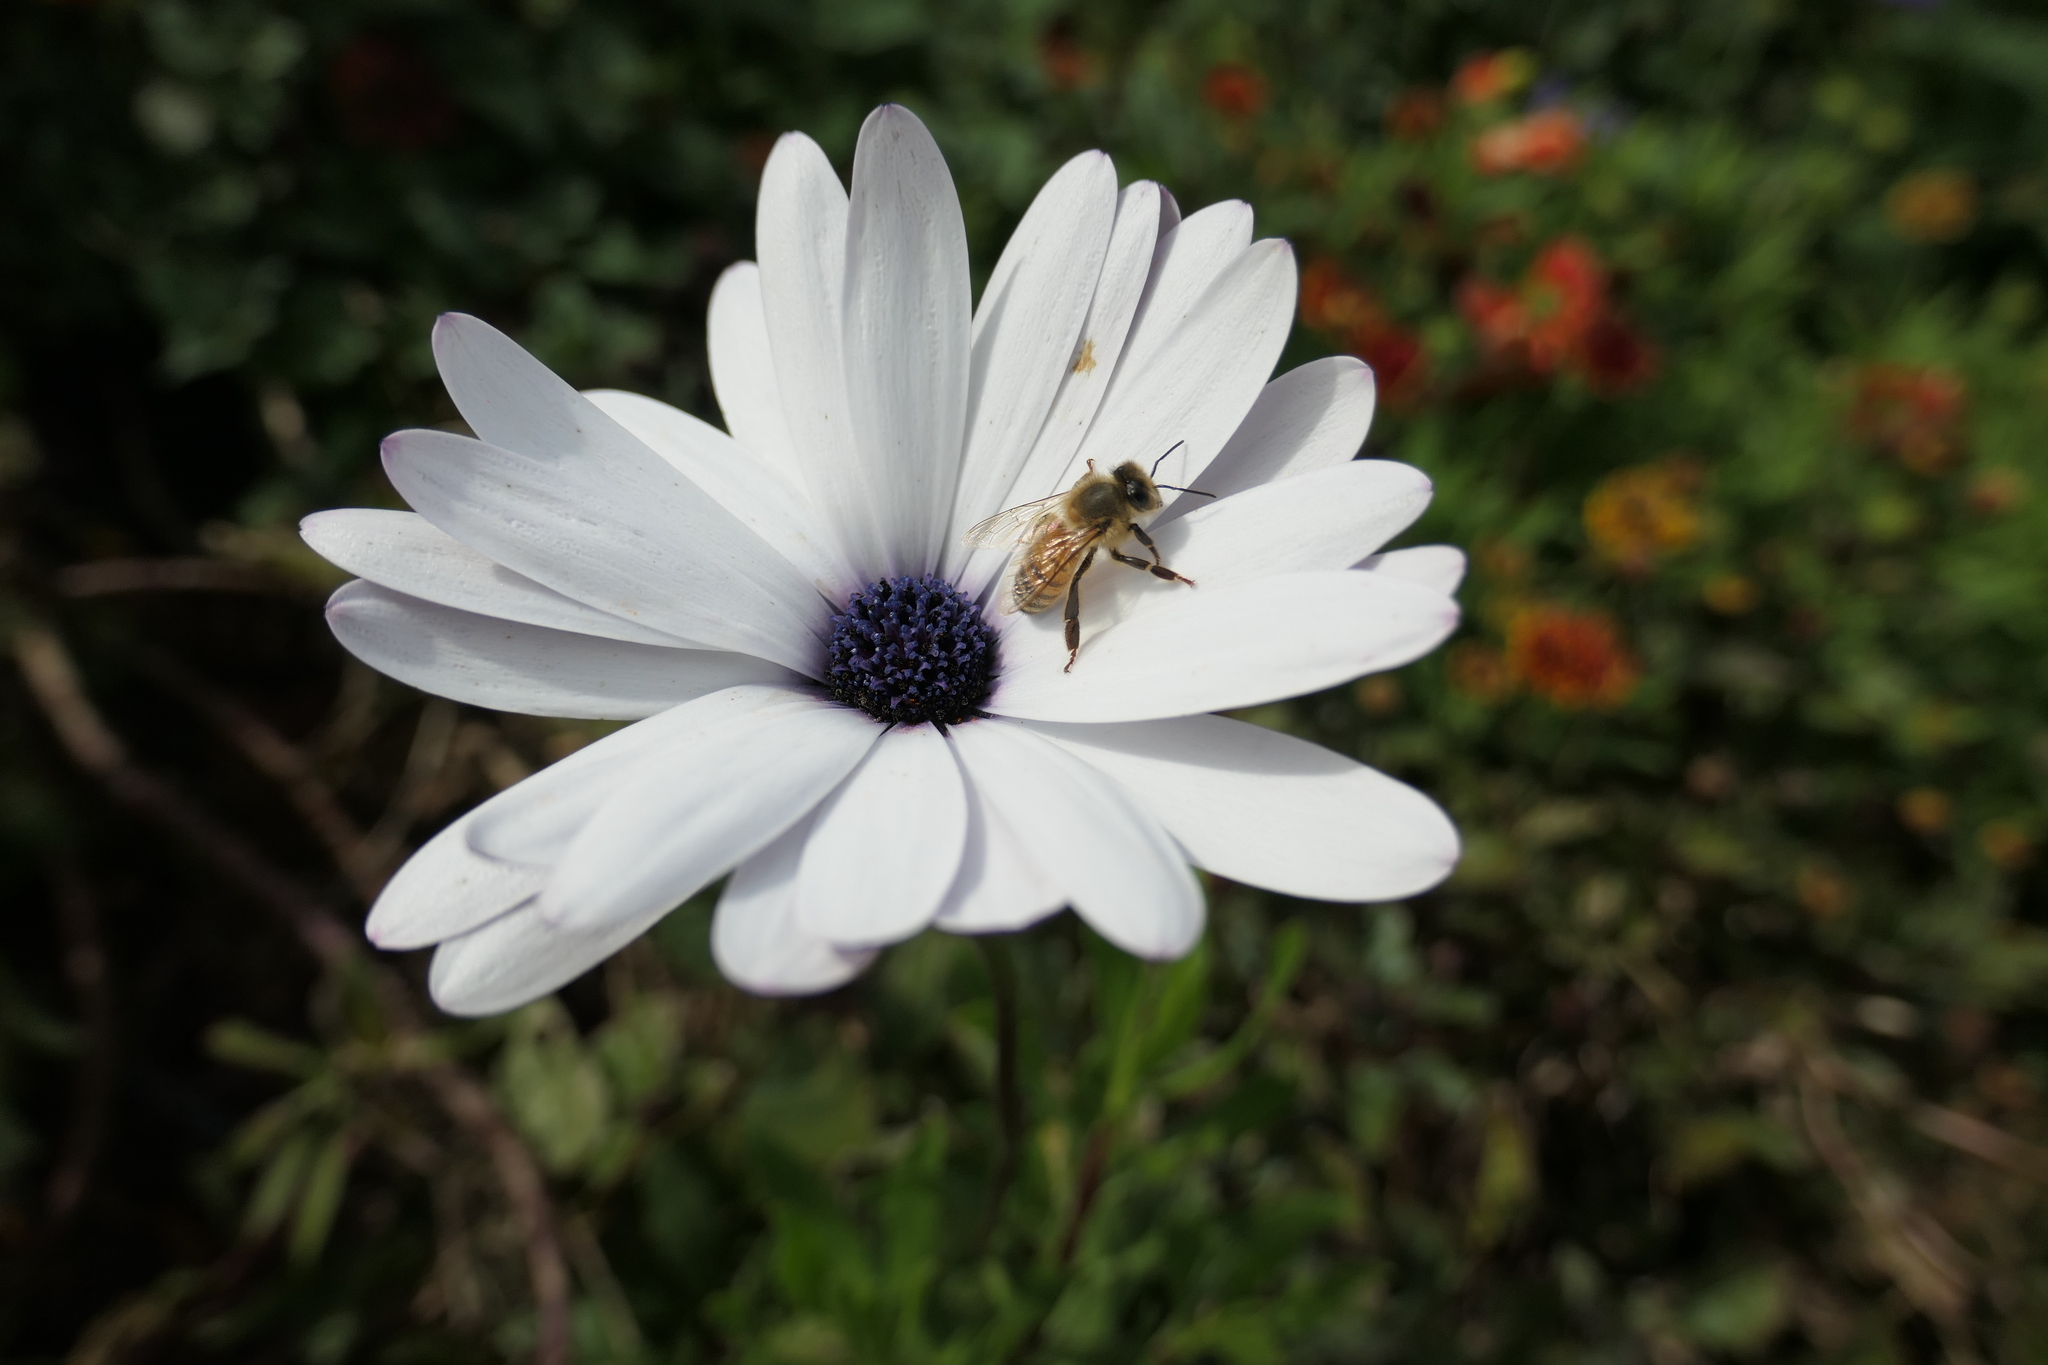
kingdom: Animalia
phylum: Arthropoda
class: Insecta
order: Hymenoptera
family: Apidae
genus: Apis
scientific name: Apis mellifera
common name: Honey bee
